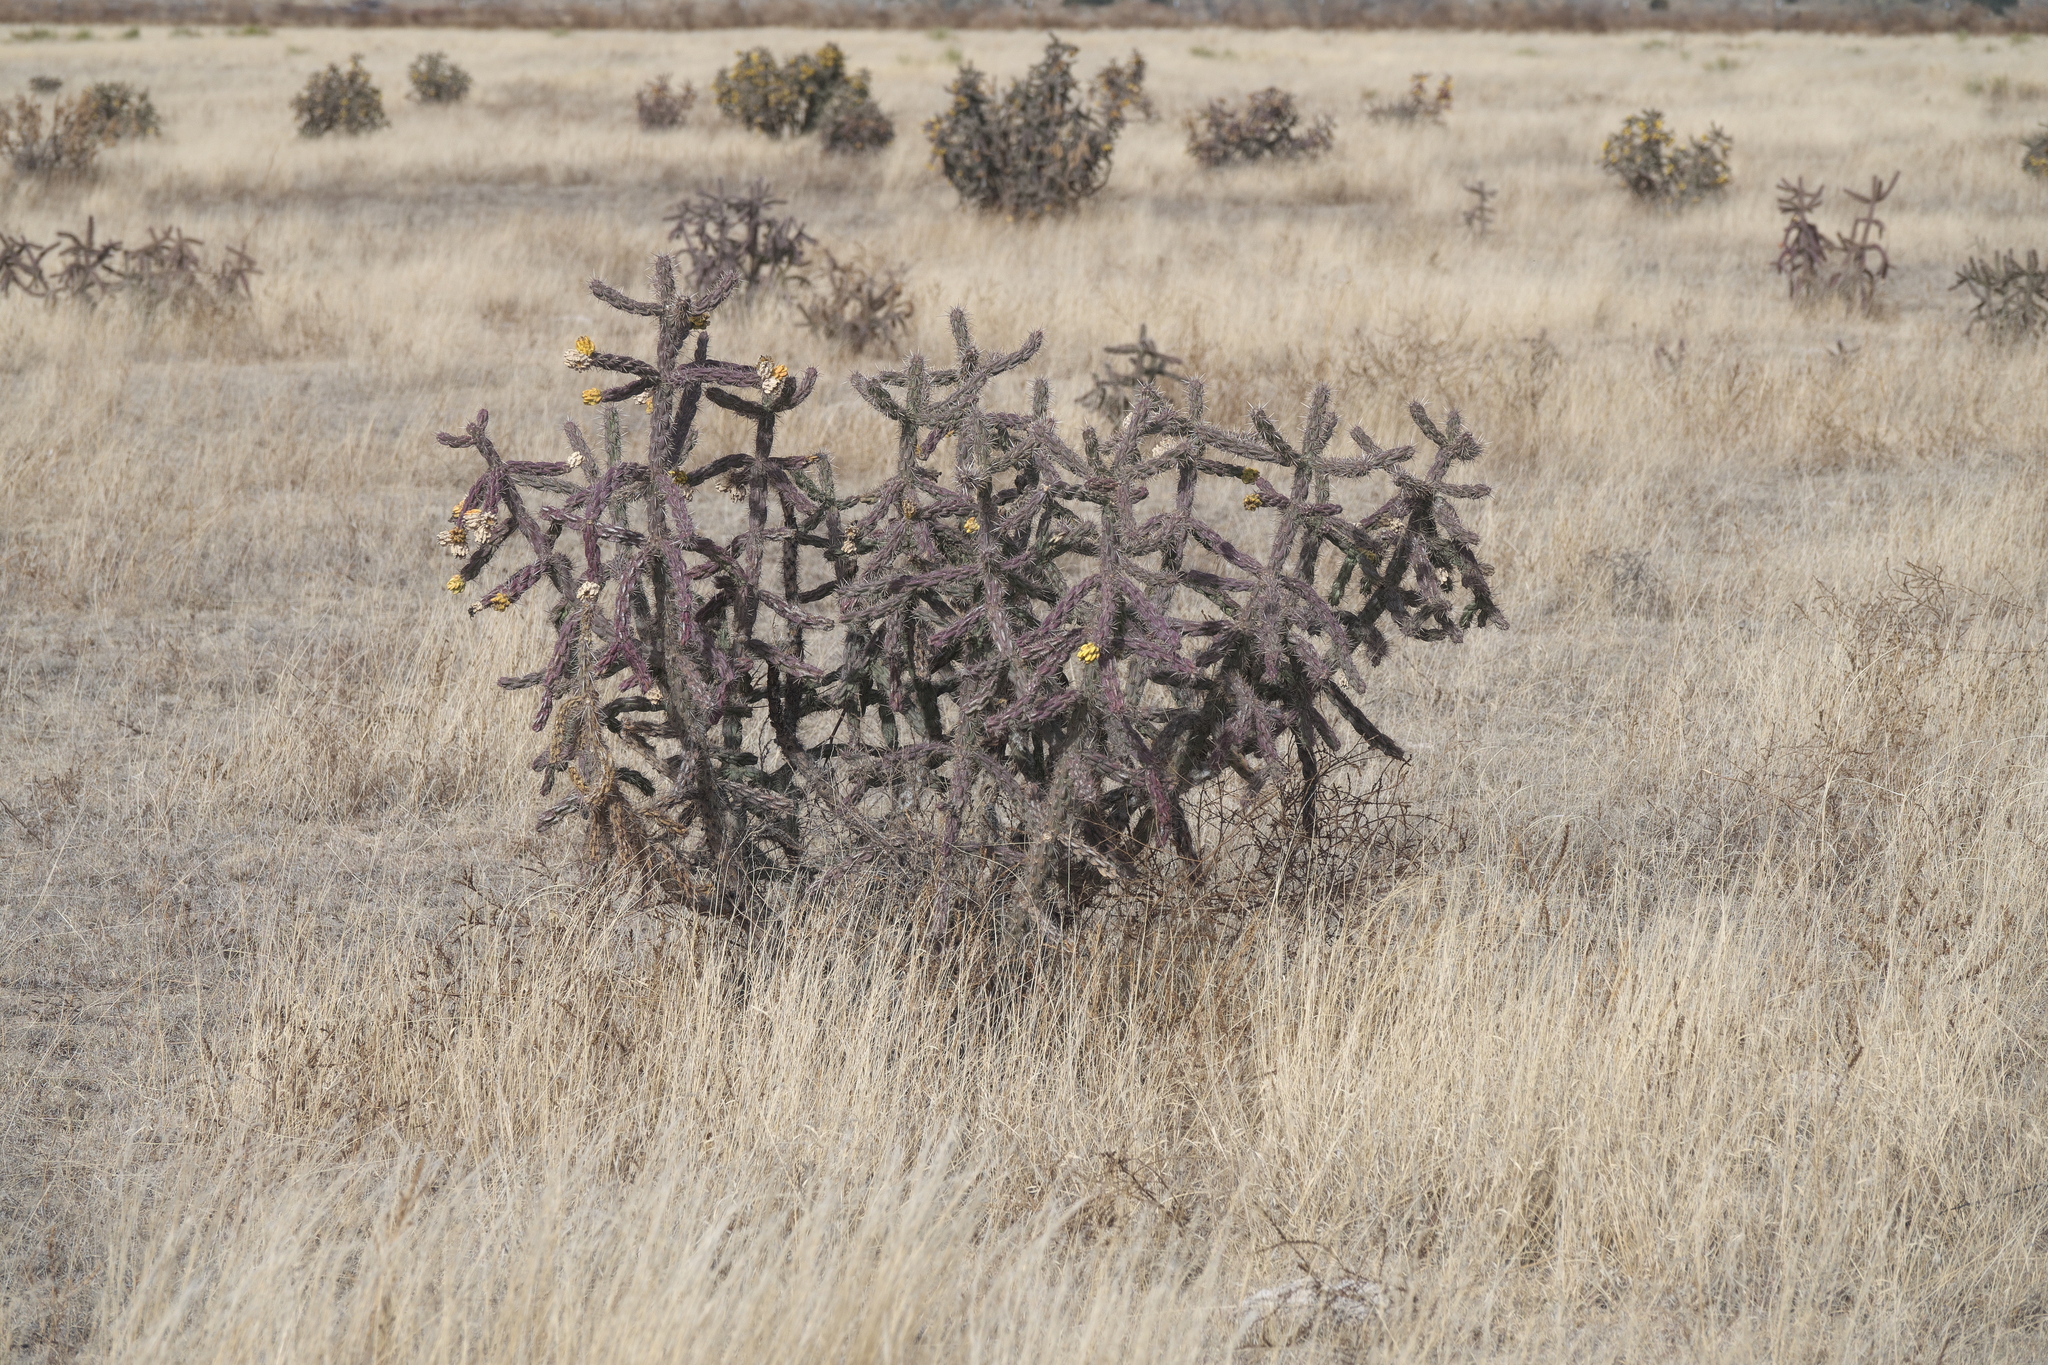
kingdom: Plantae
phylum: Tracheophyta
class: Magnoliopsida
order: Caryophyllales
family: Cactaceae
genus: Cylindropuntia
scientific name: Cylindropuntia imbricata
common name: Candelabrum cactus
